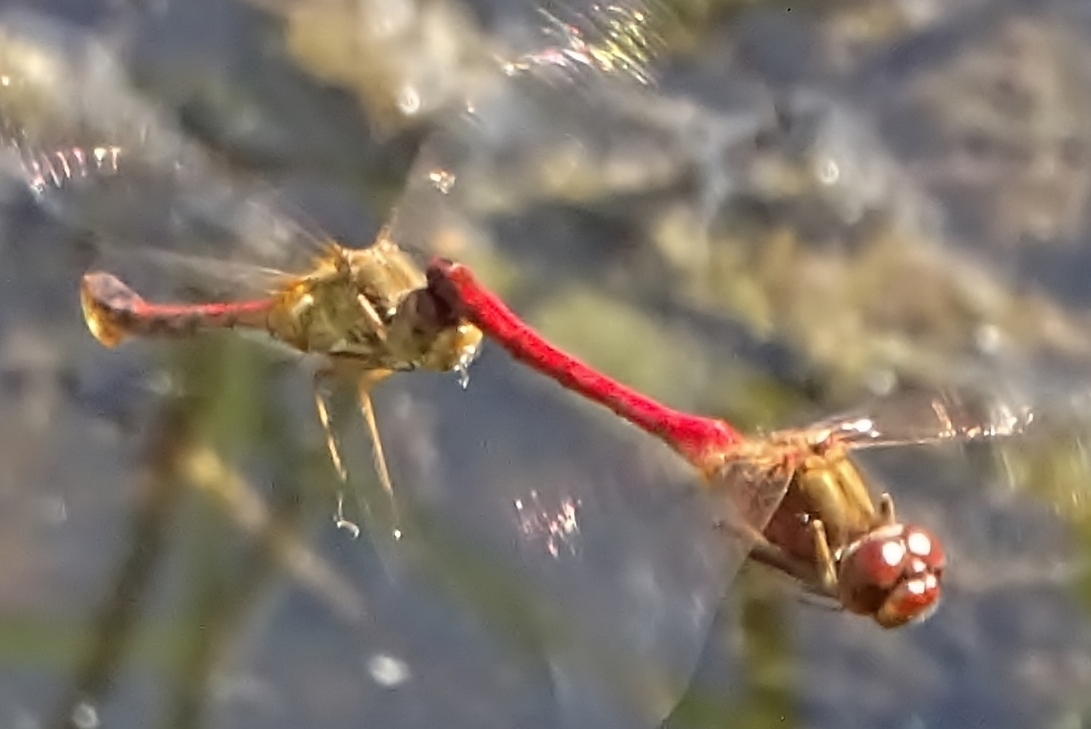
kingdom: Animalia
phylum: Arthropoda
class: Insecta
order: Odonata
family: Libellulidae
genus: Sympetrum
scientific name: Sympetrum vicinum
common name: Autumn meadowhawk
